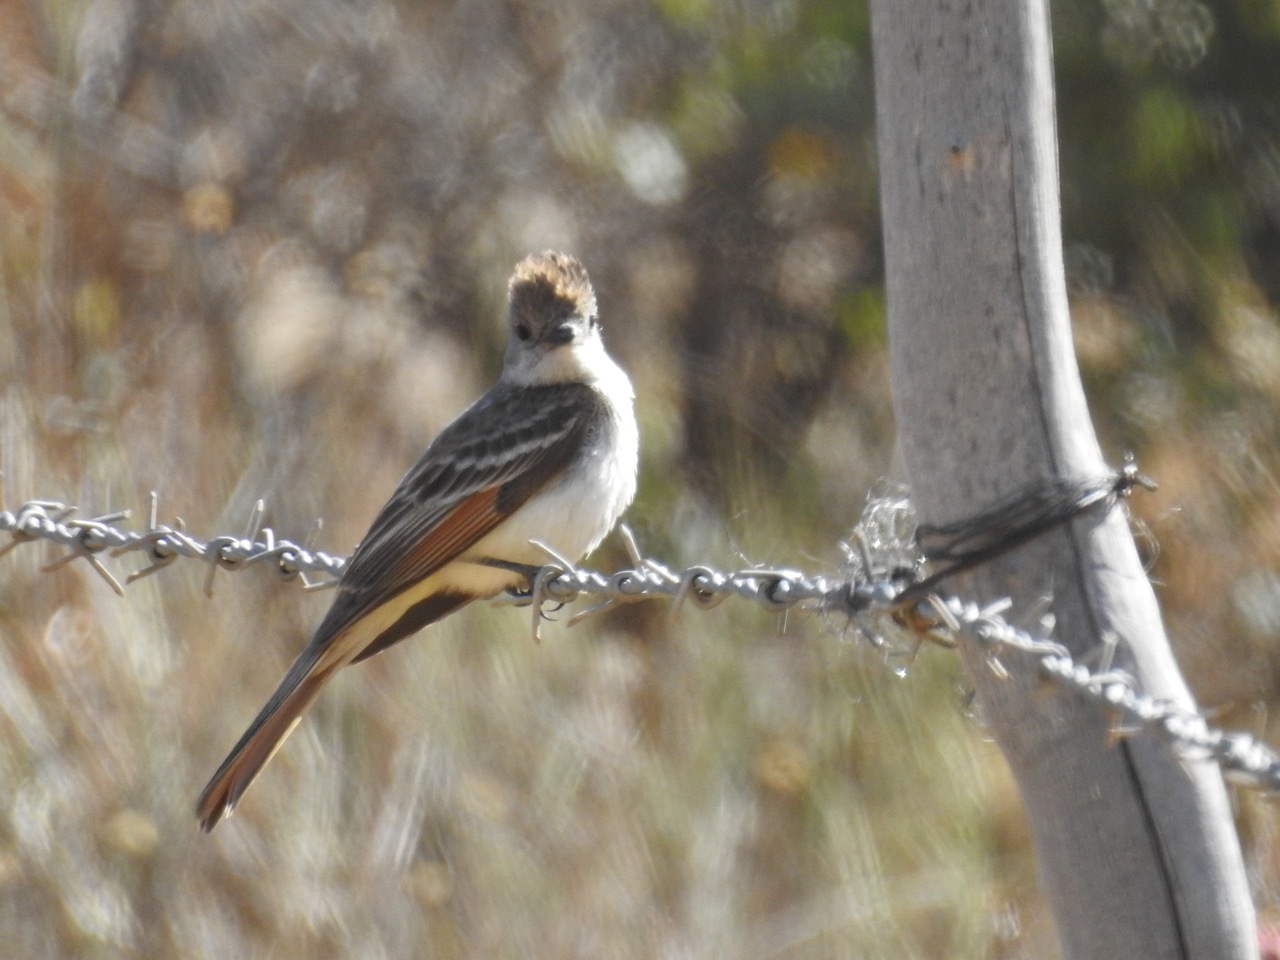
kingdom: Animalia
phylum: Chordata
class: Aves
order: Passeriformes
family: Tyrannidae
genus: Myiarchus
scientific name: Myiarchus cinerascens
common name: Ash-throated flycatcher
